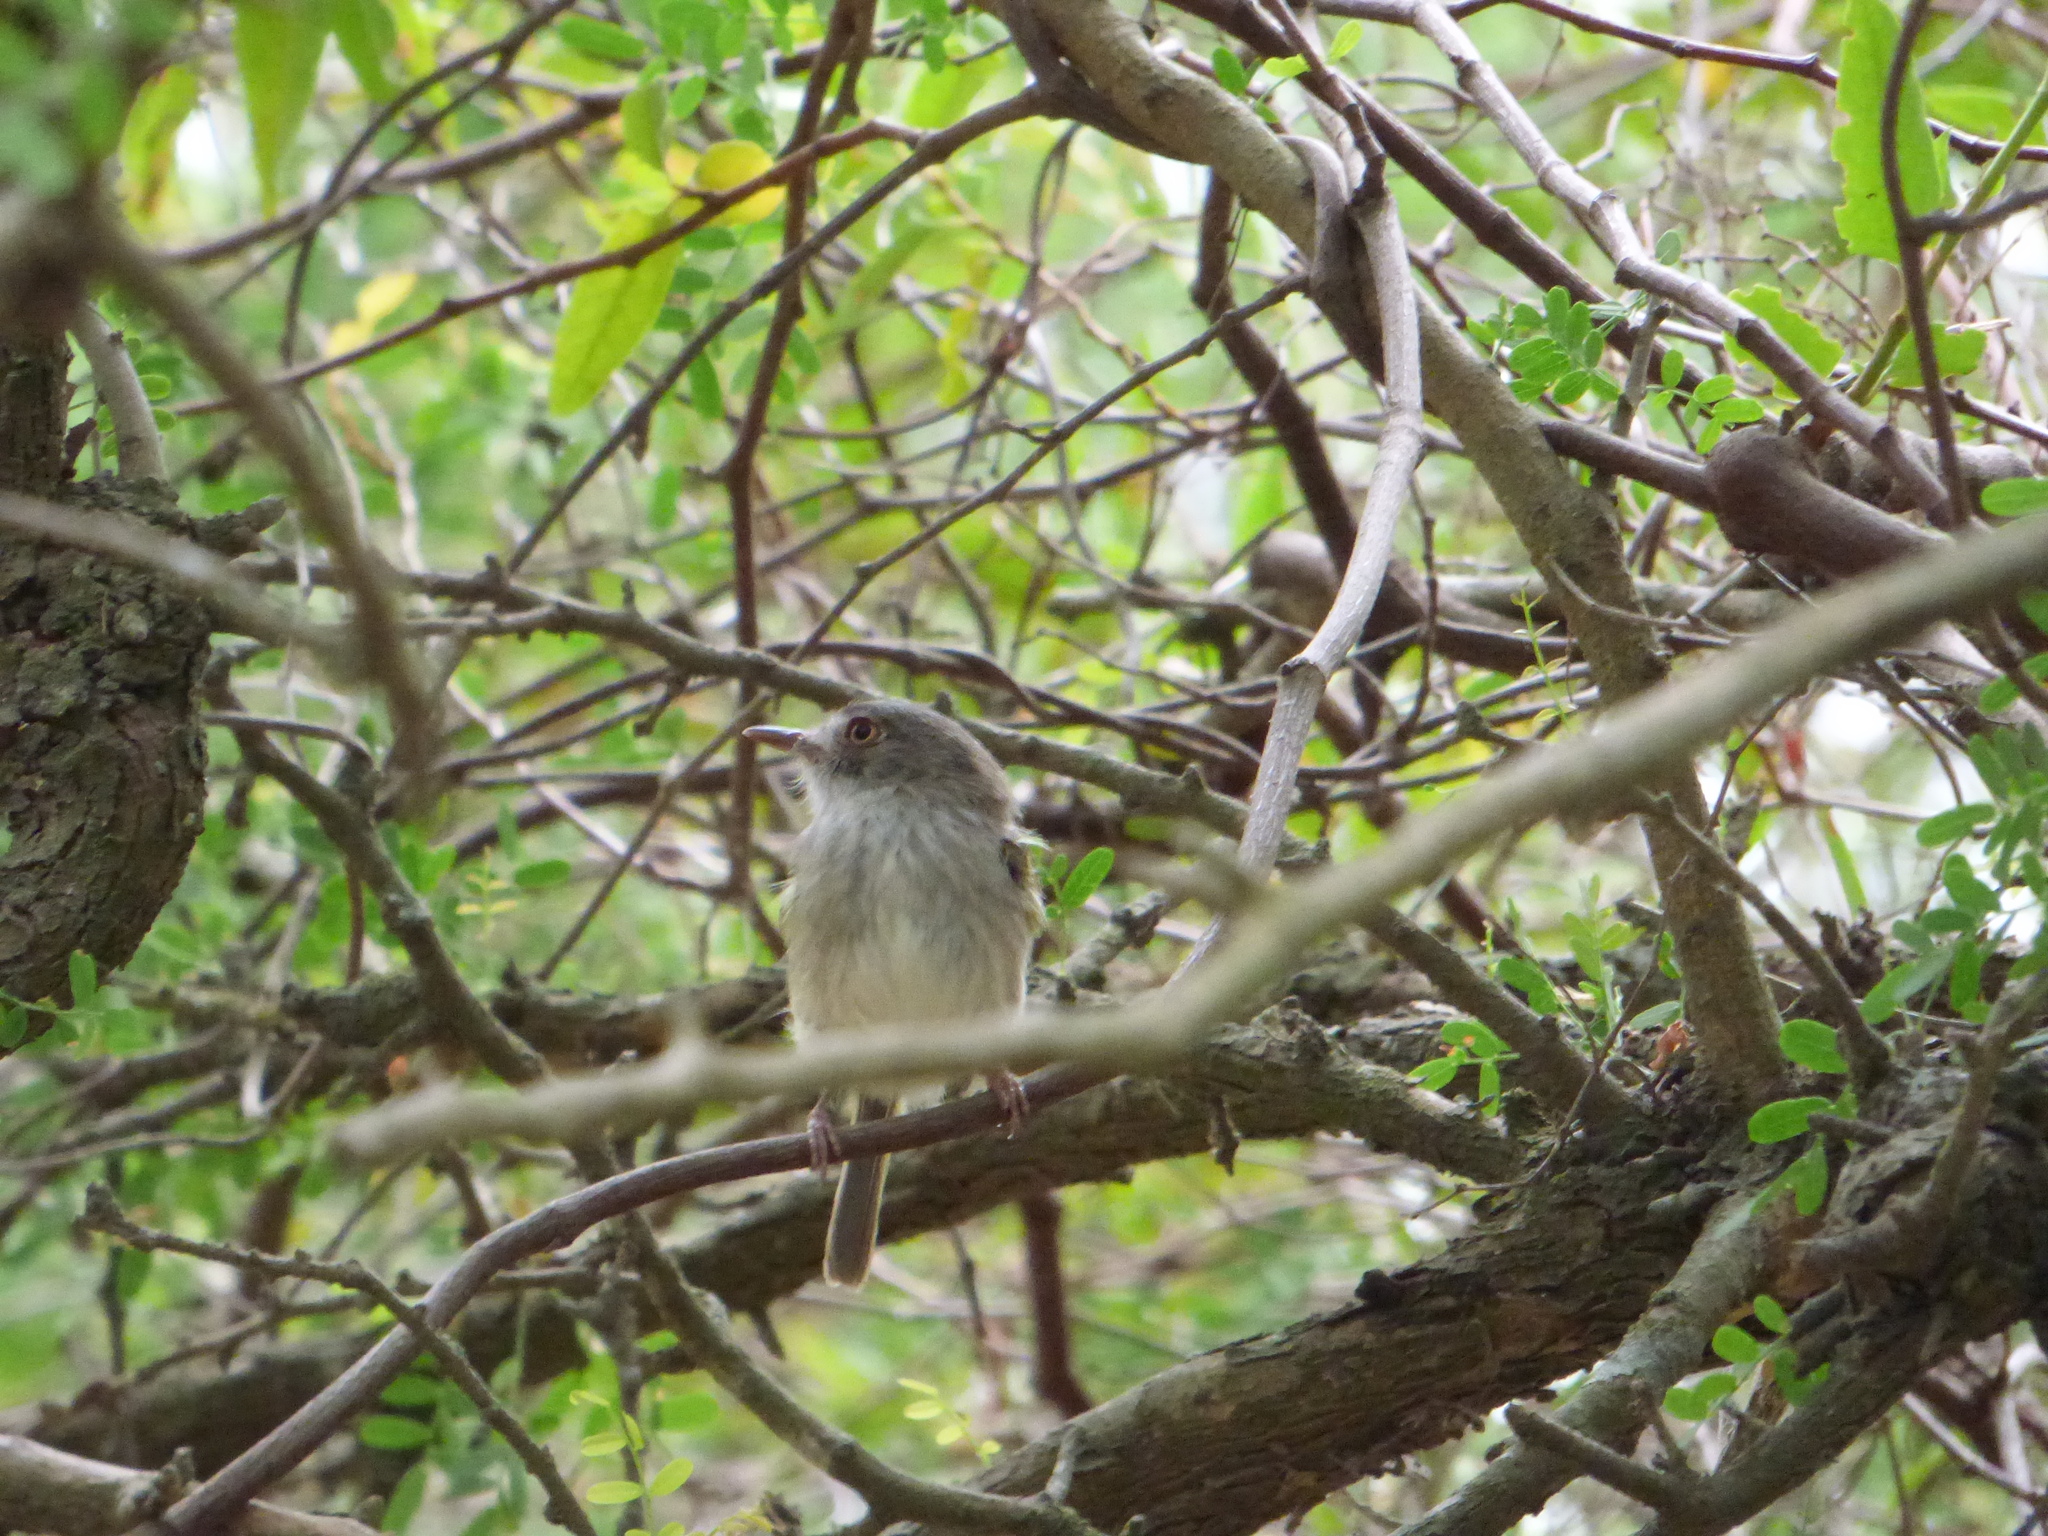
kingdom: Animalia
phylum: Chordata
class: Aves
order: Passeriformes
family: Tyrannidae
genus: Hemitriccus
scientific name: Hemitriccus margaritaceiventer
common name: Pearly-vented tody-tyrant
